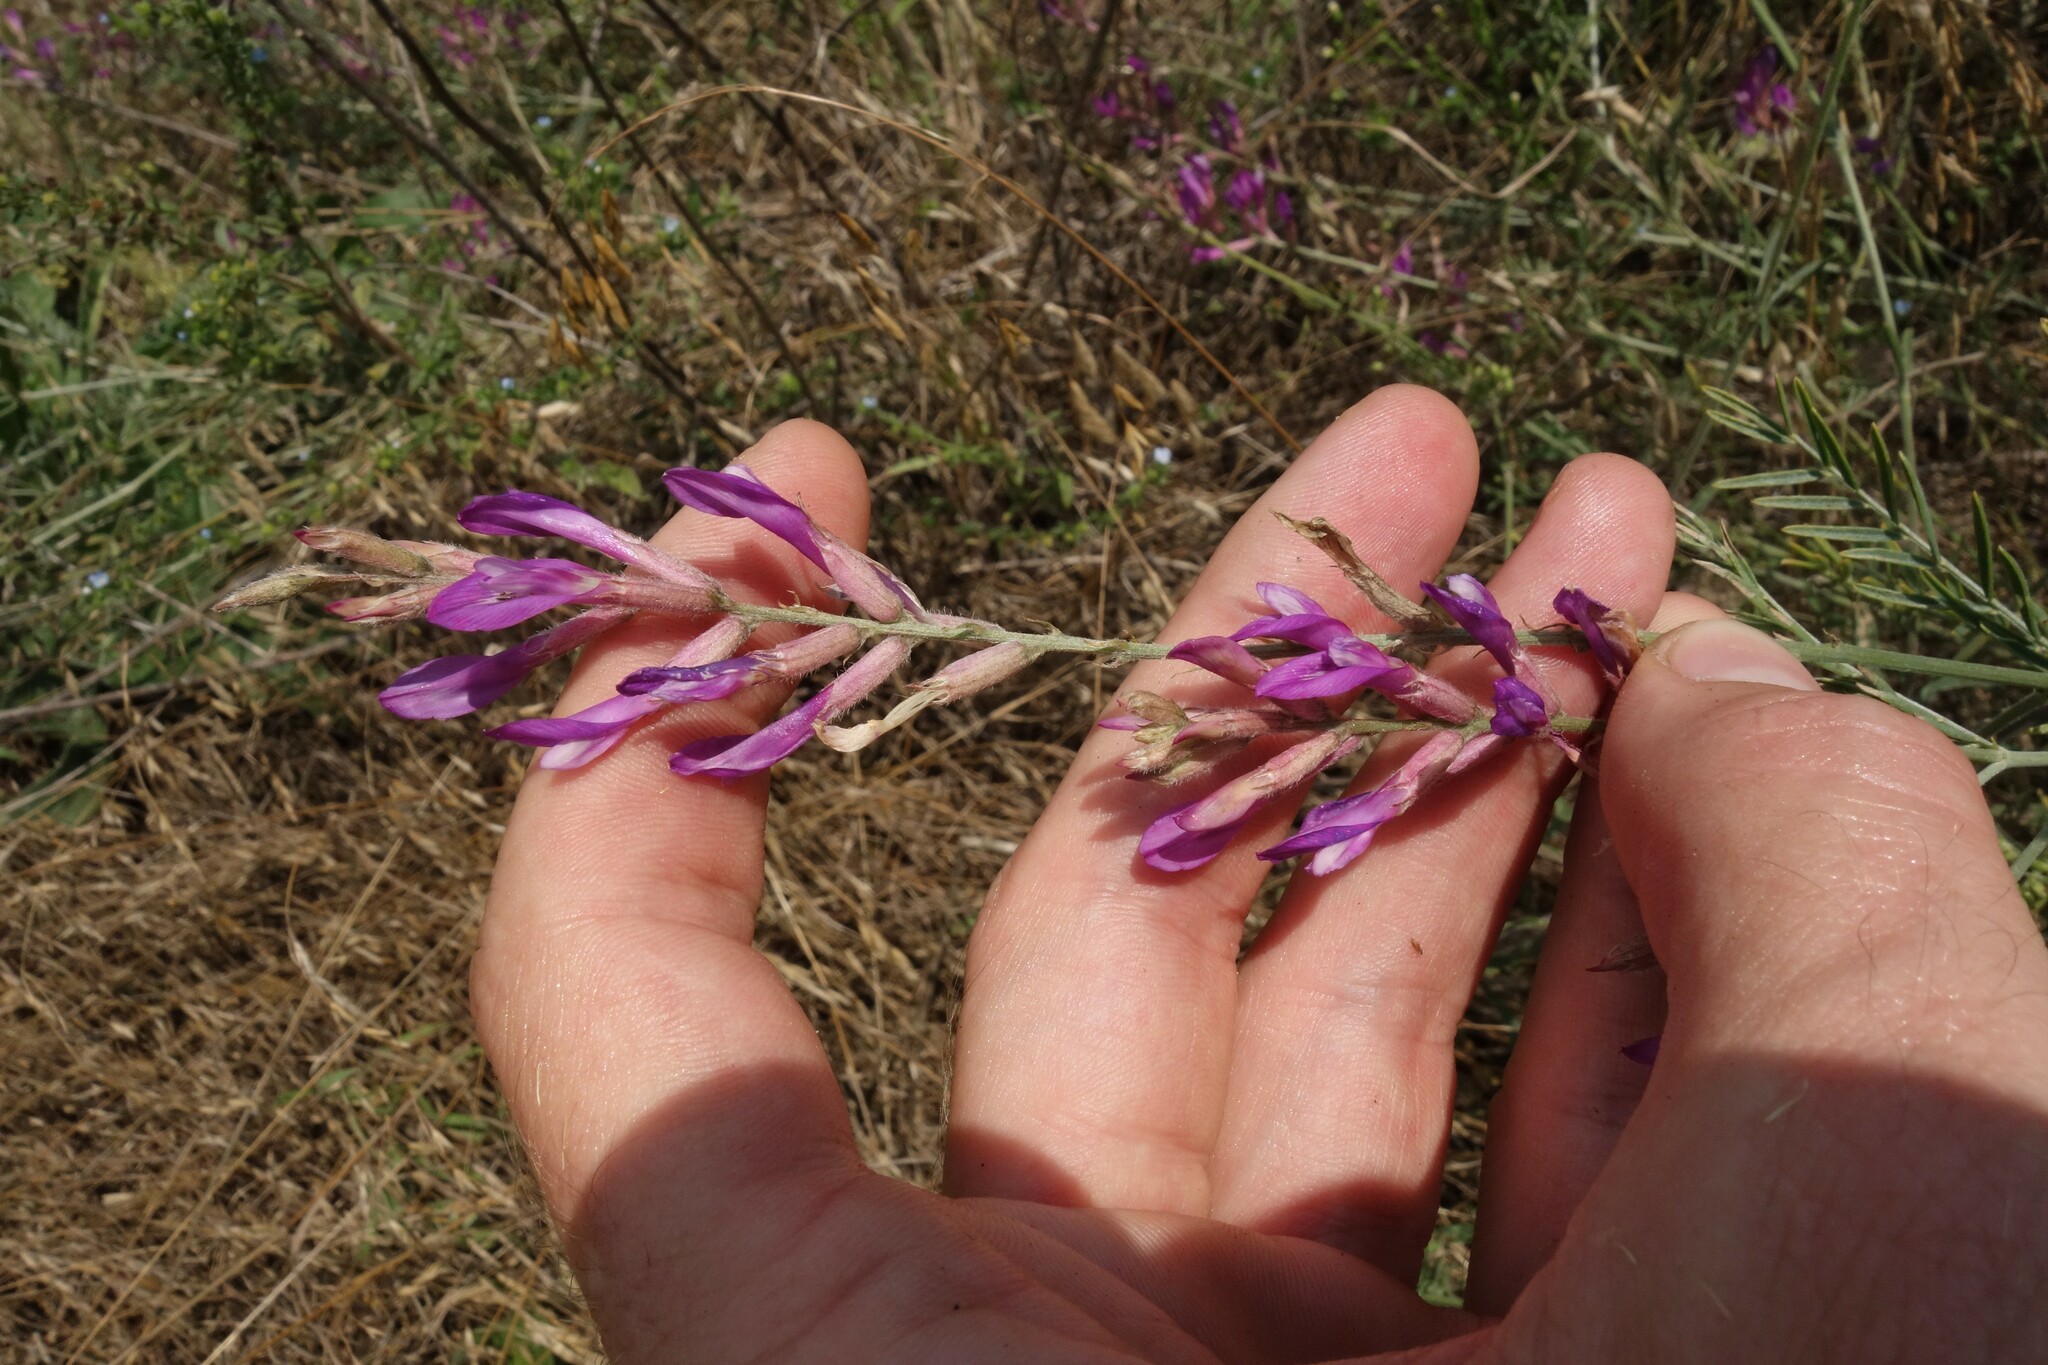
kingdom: Plantae
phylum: Tracheophyta
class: Magnoliopsida
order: Fabales
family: Fabaceae
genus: Astragalus
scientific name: Astragalus varius
